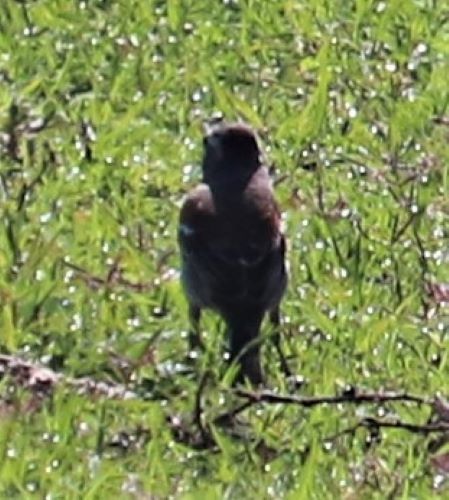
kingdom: Animalia
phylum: Chordata
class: Aves
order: Passeriformes
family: Passeridae
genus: Passer
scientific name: Passer melanurus
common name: Cape sparrow
